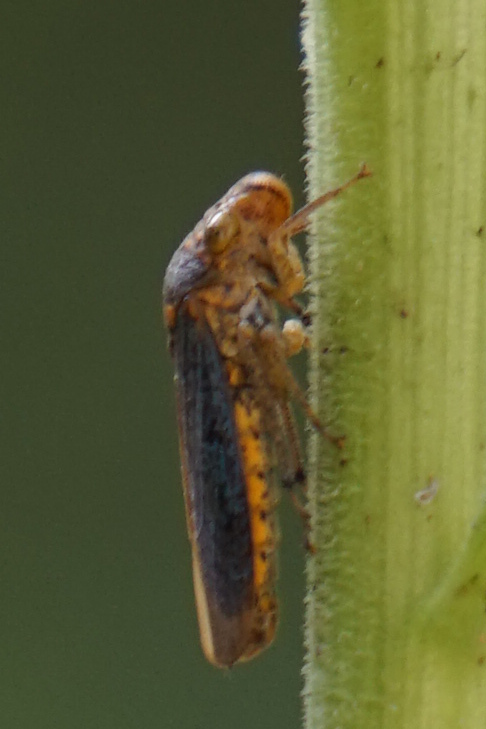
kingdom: Animalia
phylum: Arthropoda
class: Insecta
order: Hemiptera
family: Cicadellidae
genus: Oncometopia
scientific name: Oncometopia orbona
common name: Broad-headed sharpshooter
